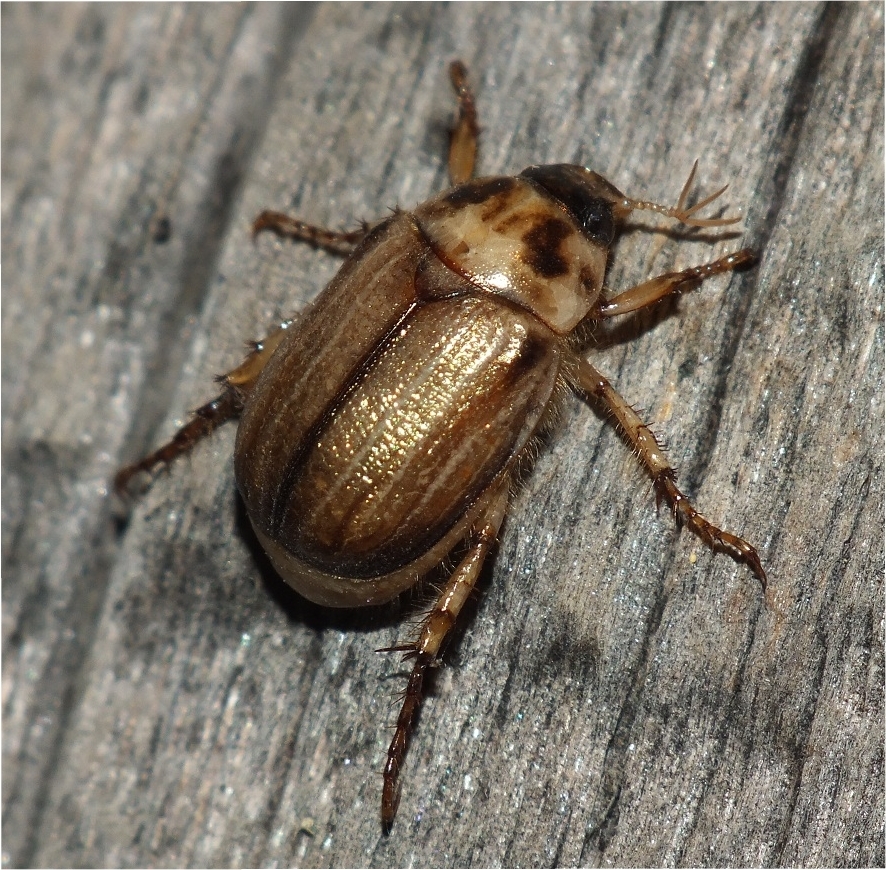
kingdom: Animalia
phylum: Arthropoda
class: Insecta
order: Coleoptera
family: Scarabaeidae
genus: Anomala
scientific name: Anomala errans
